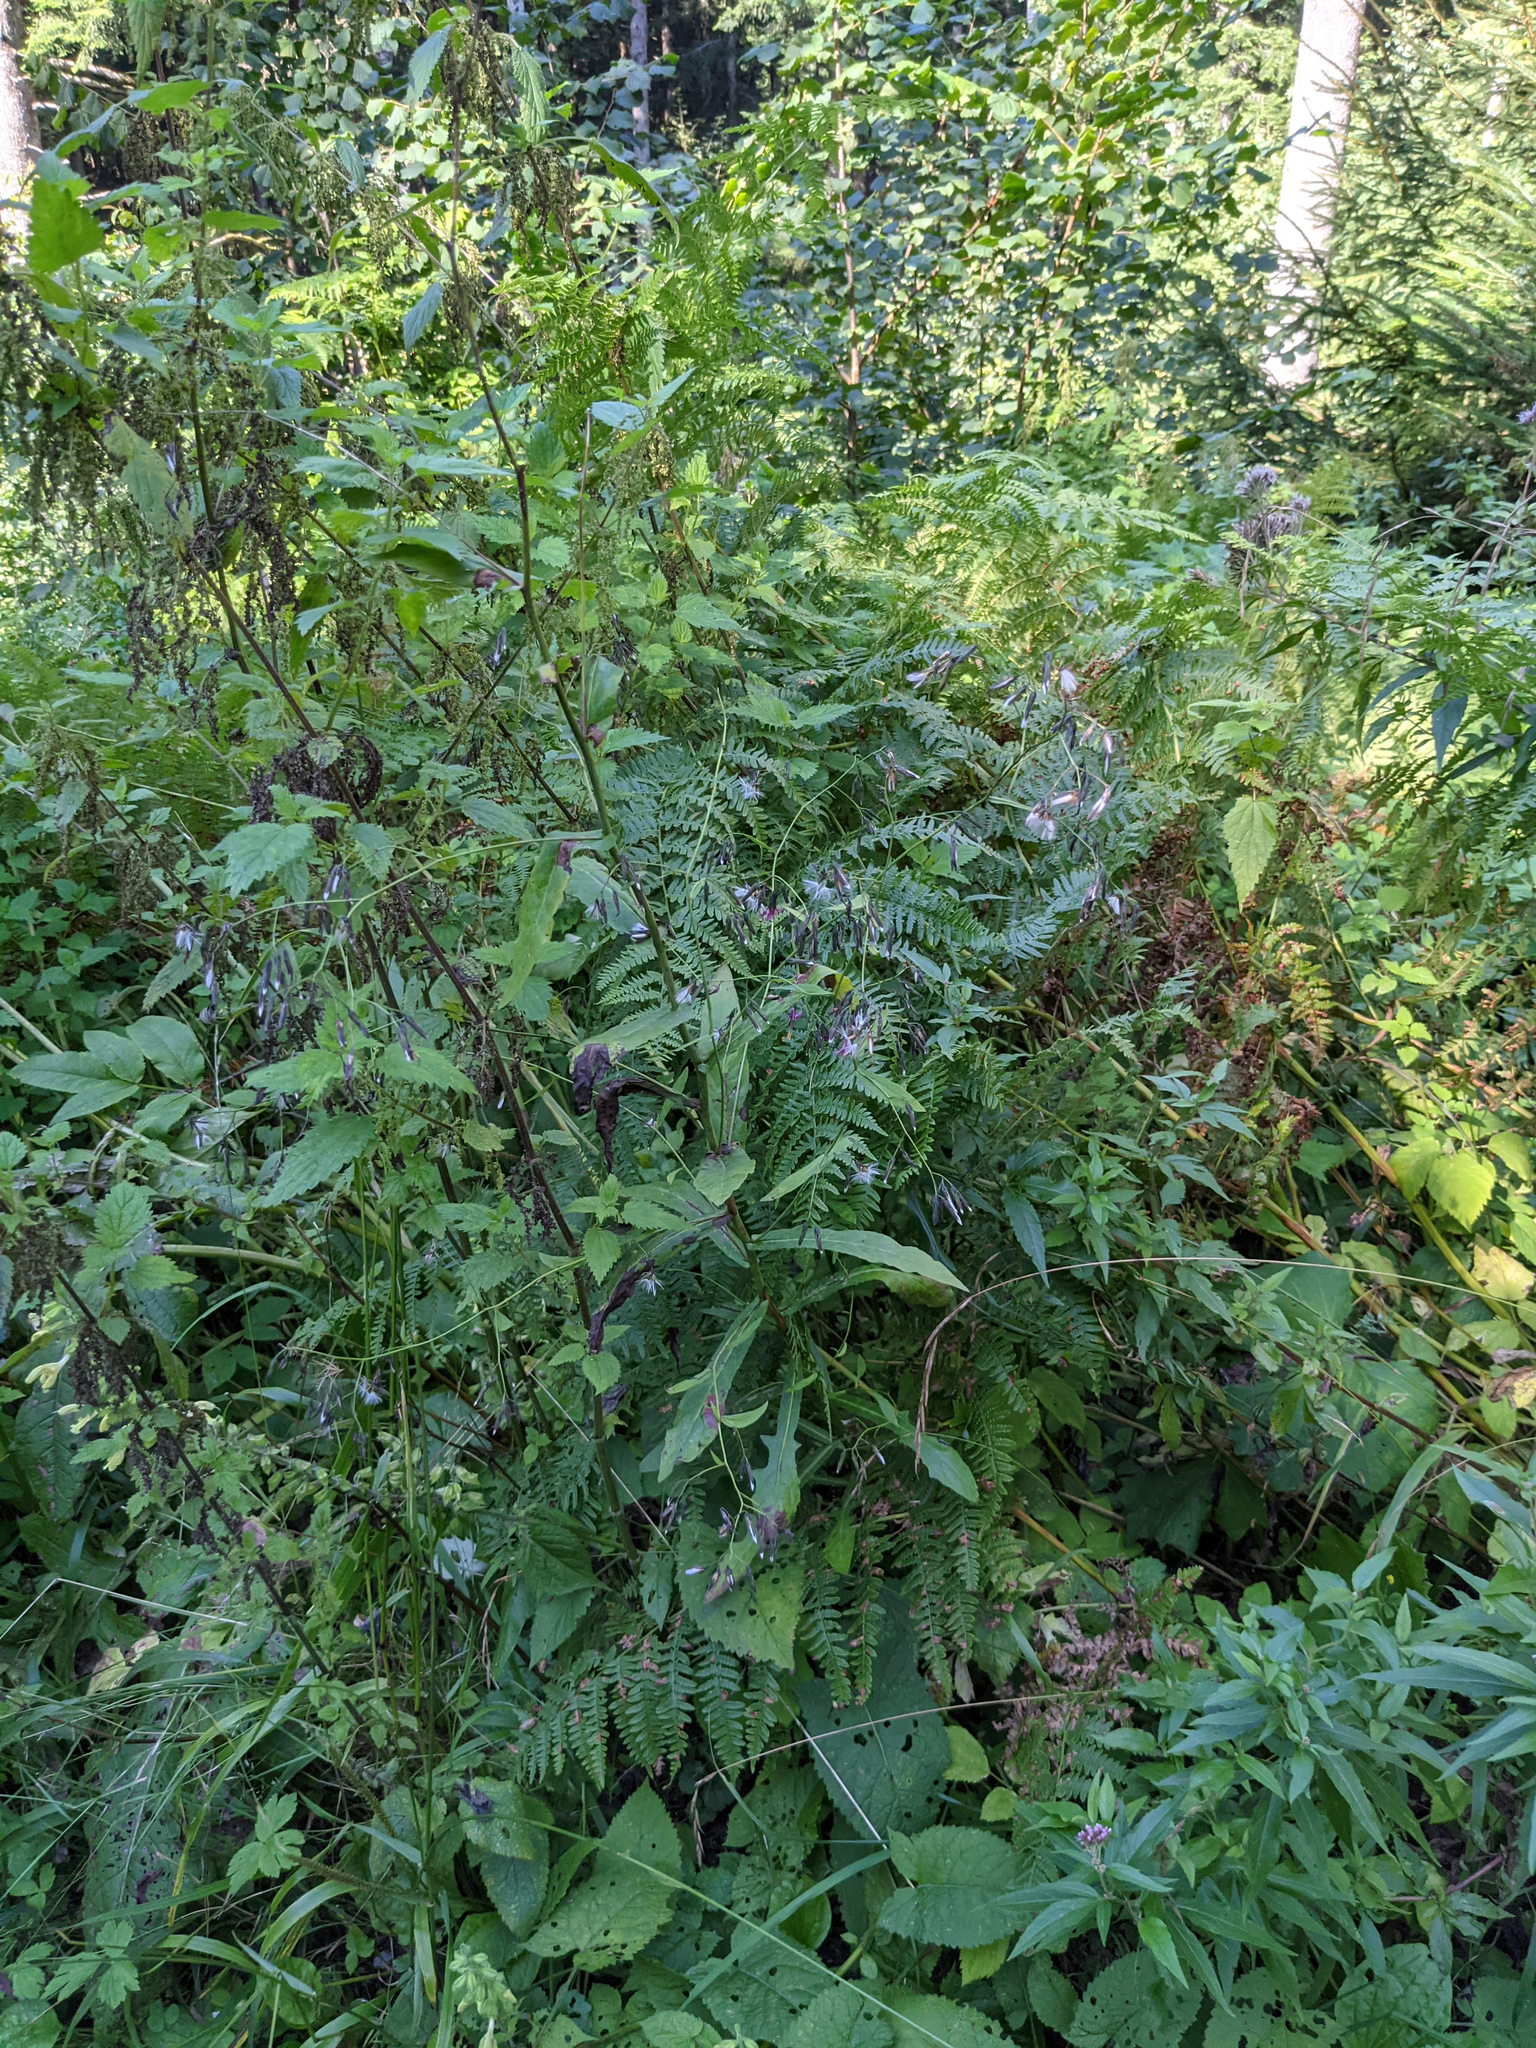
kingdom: Plantae
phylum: Tracheophyta
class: Magnoliopsida
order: Asterales
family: Asteraceae
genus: Prenanthes
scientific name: Prenanthes purpurea
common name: Purple lettuce
